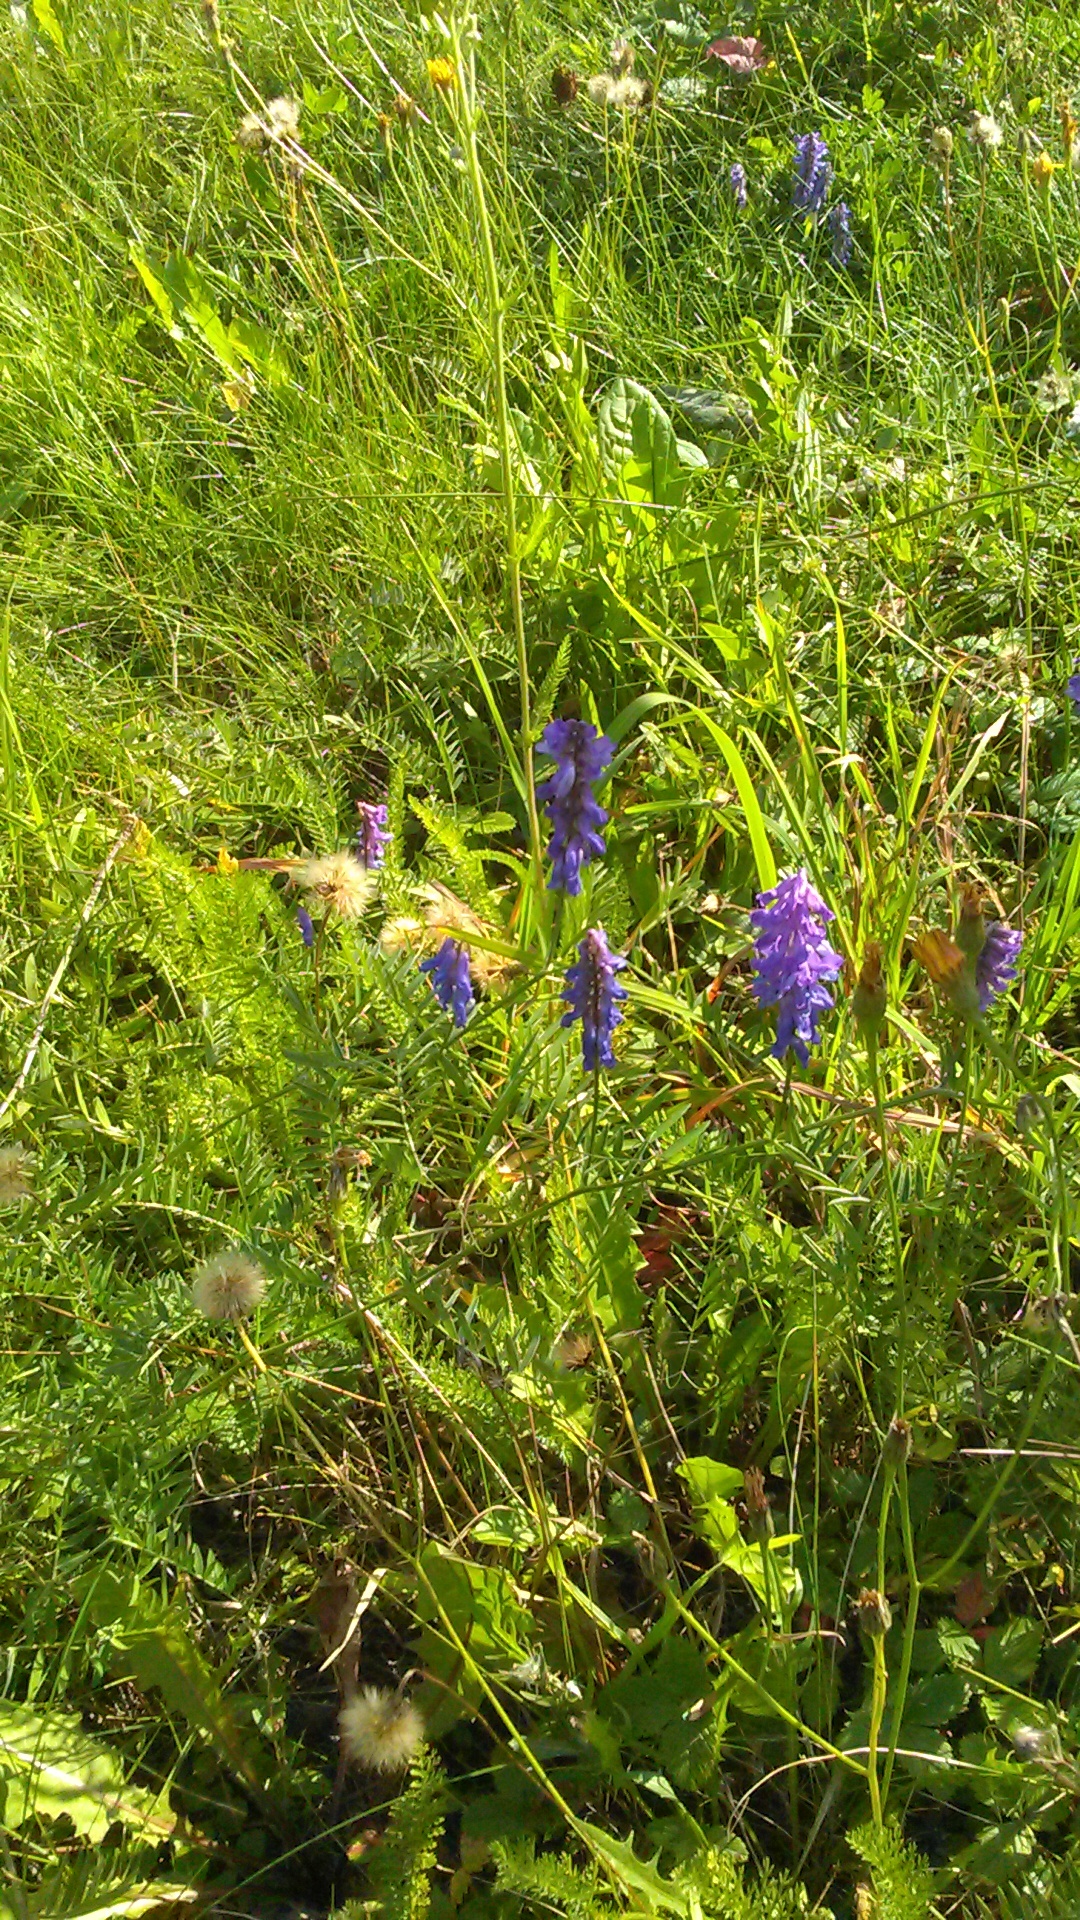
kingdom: Plantae
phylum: Tracheophyta
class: Magnoliopsida
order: Fabales
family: Fabaceae
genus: Vicia
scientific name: Vicia cracca
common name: Bird vetch
